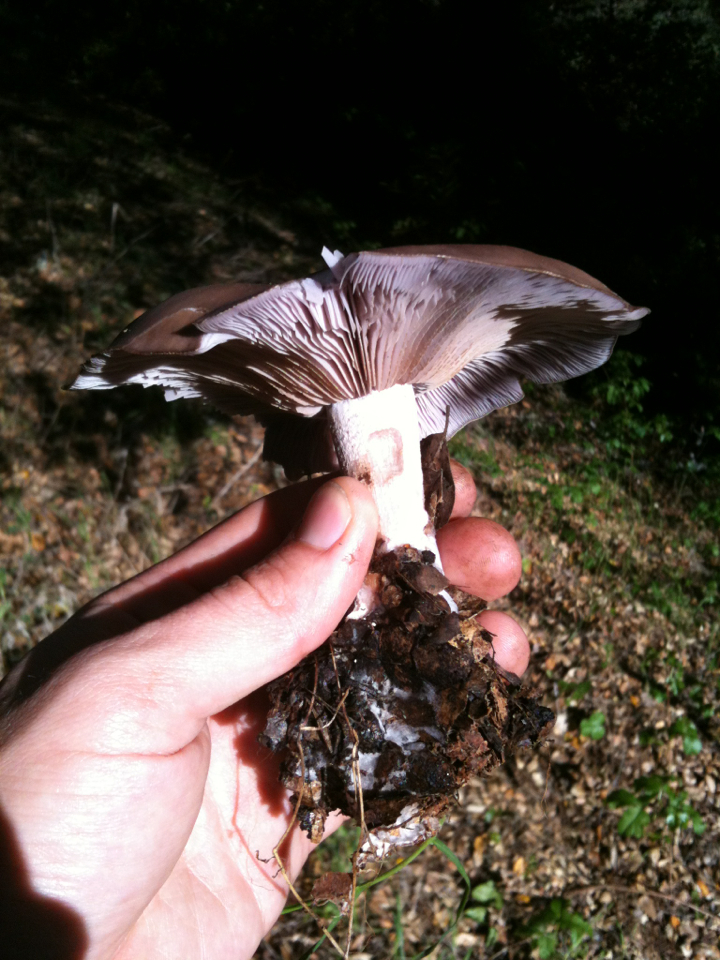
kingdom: Fungi
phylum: Basidiomycota
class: Agaricomycetes
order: Agaricales
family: Tricholomataceae
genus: Collybia
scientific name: Collybia
